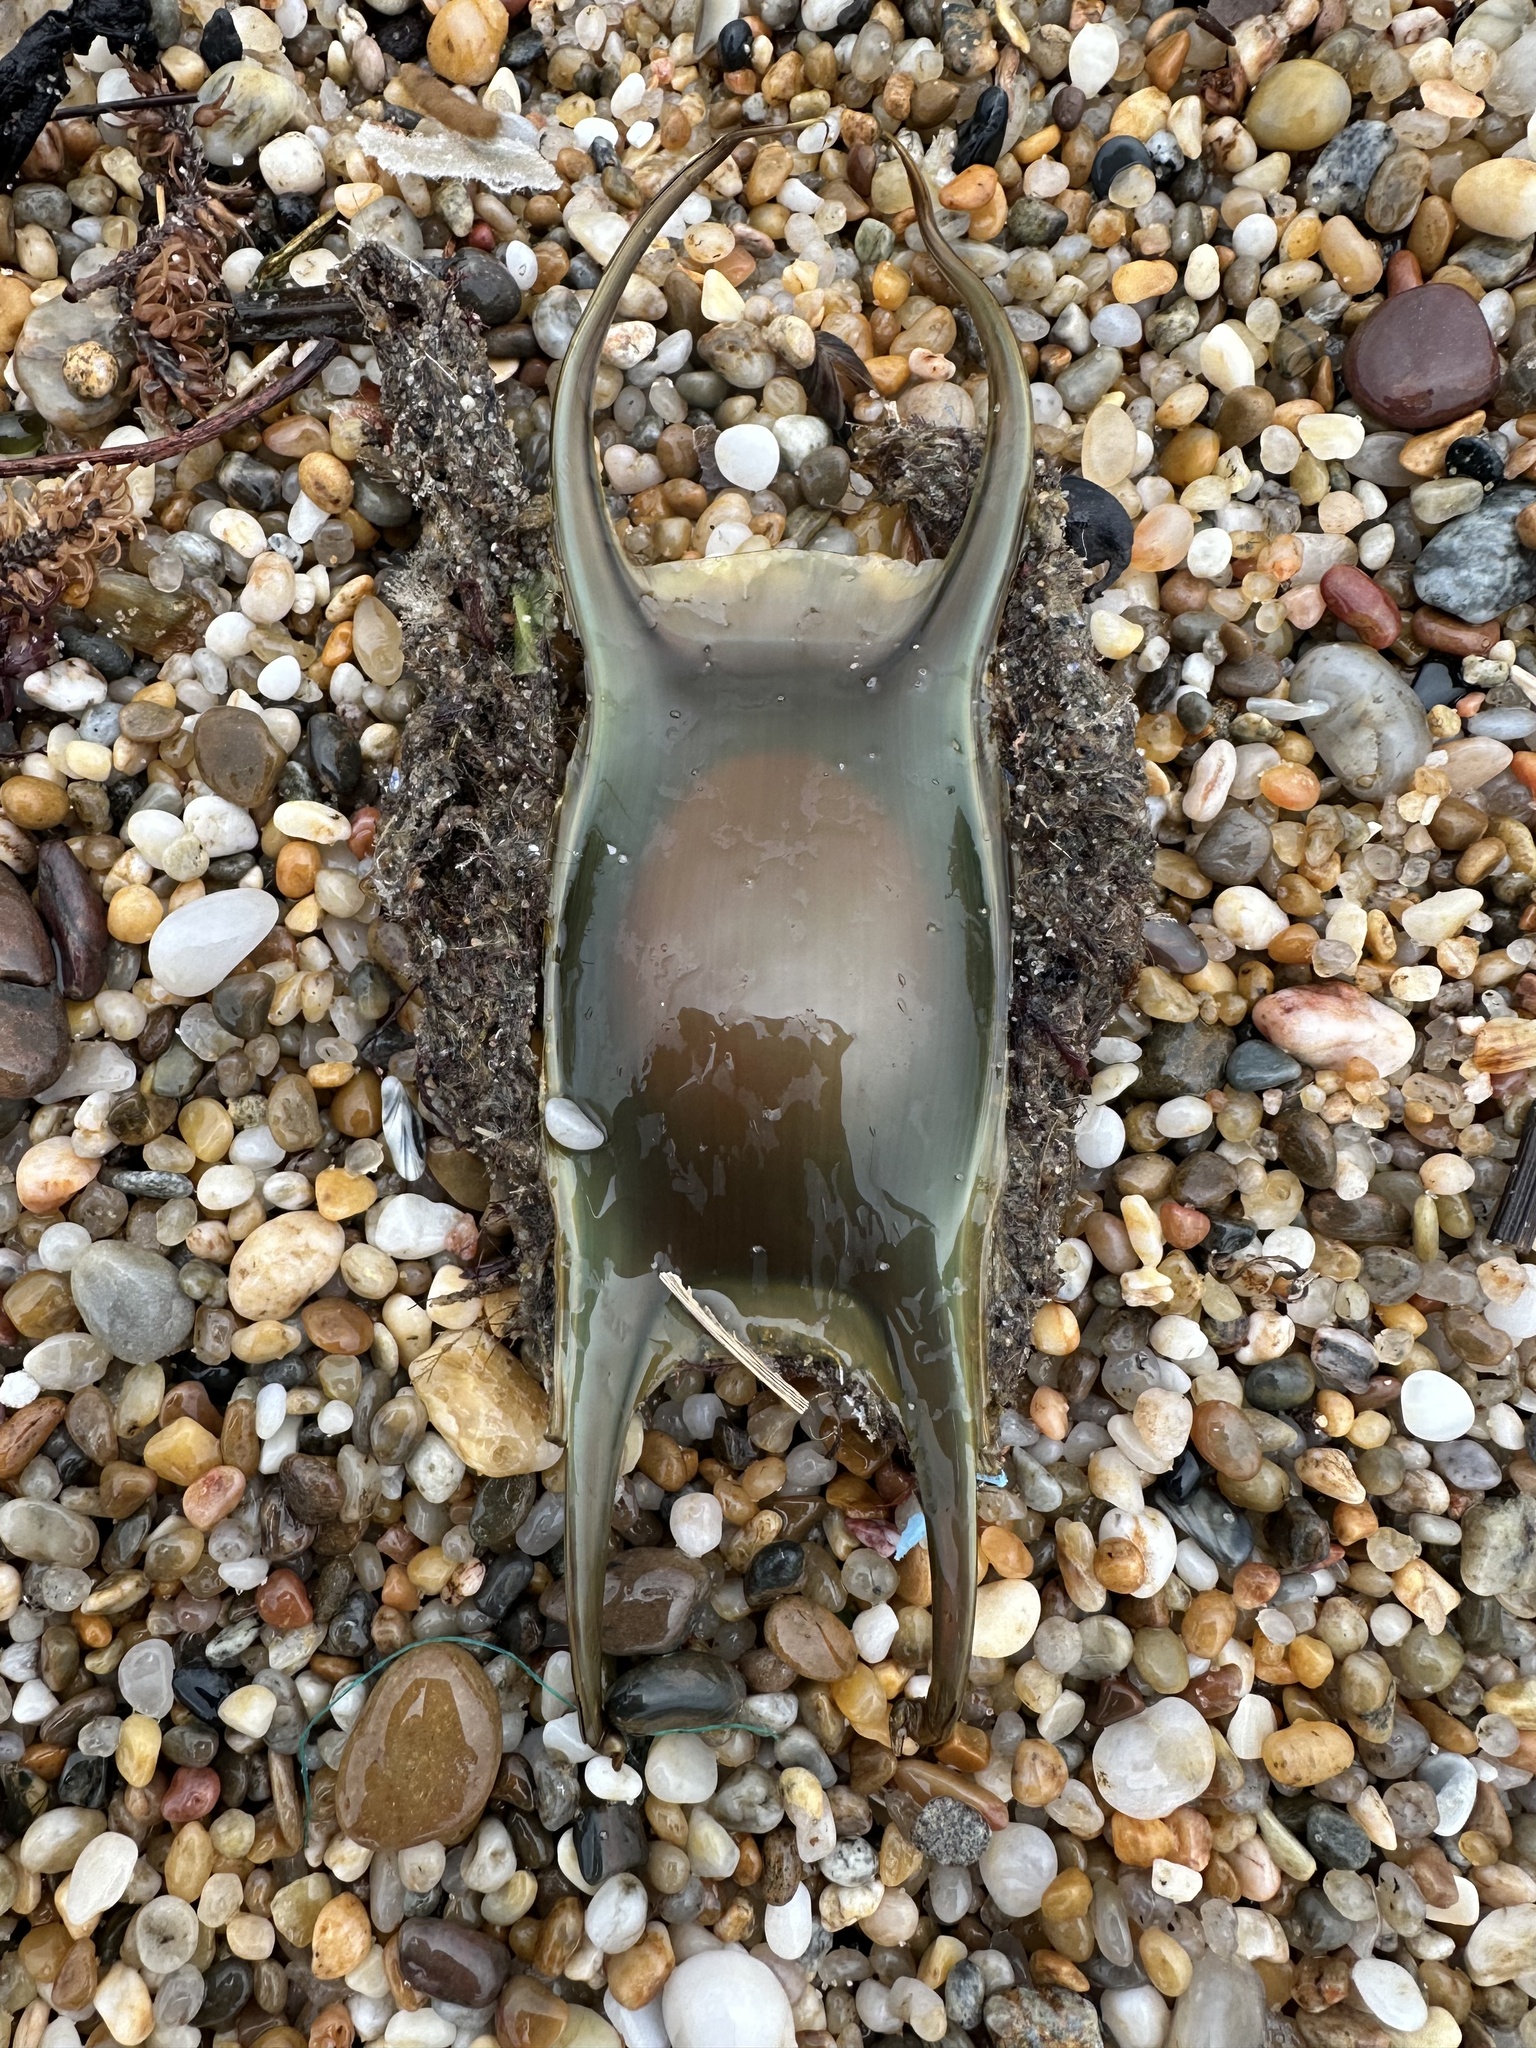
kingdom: Animalia
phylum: Chordata
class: Elasmobranchii
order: Rajiformes
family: Rajidae
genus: Raja
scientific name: Raja undulata
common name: Undulate ray
